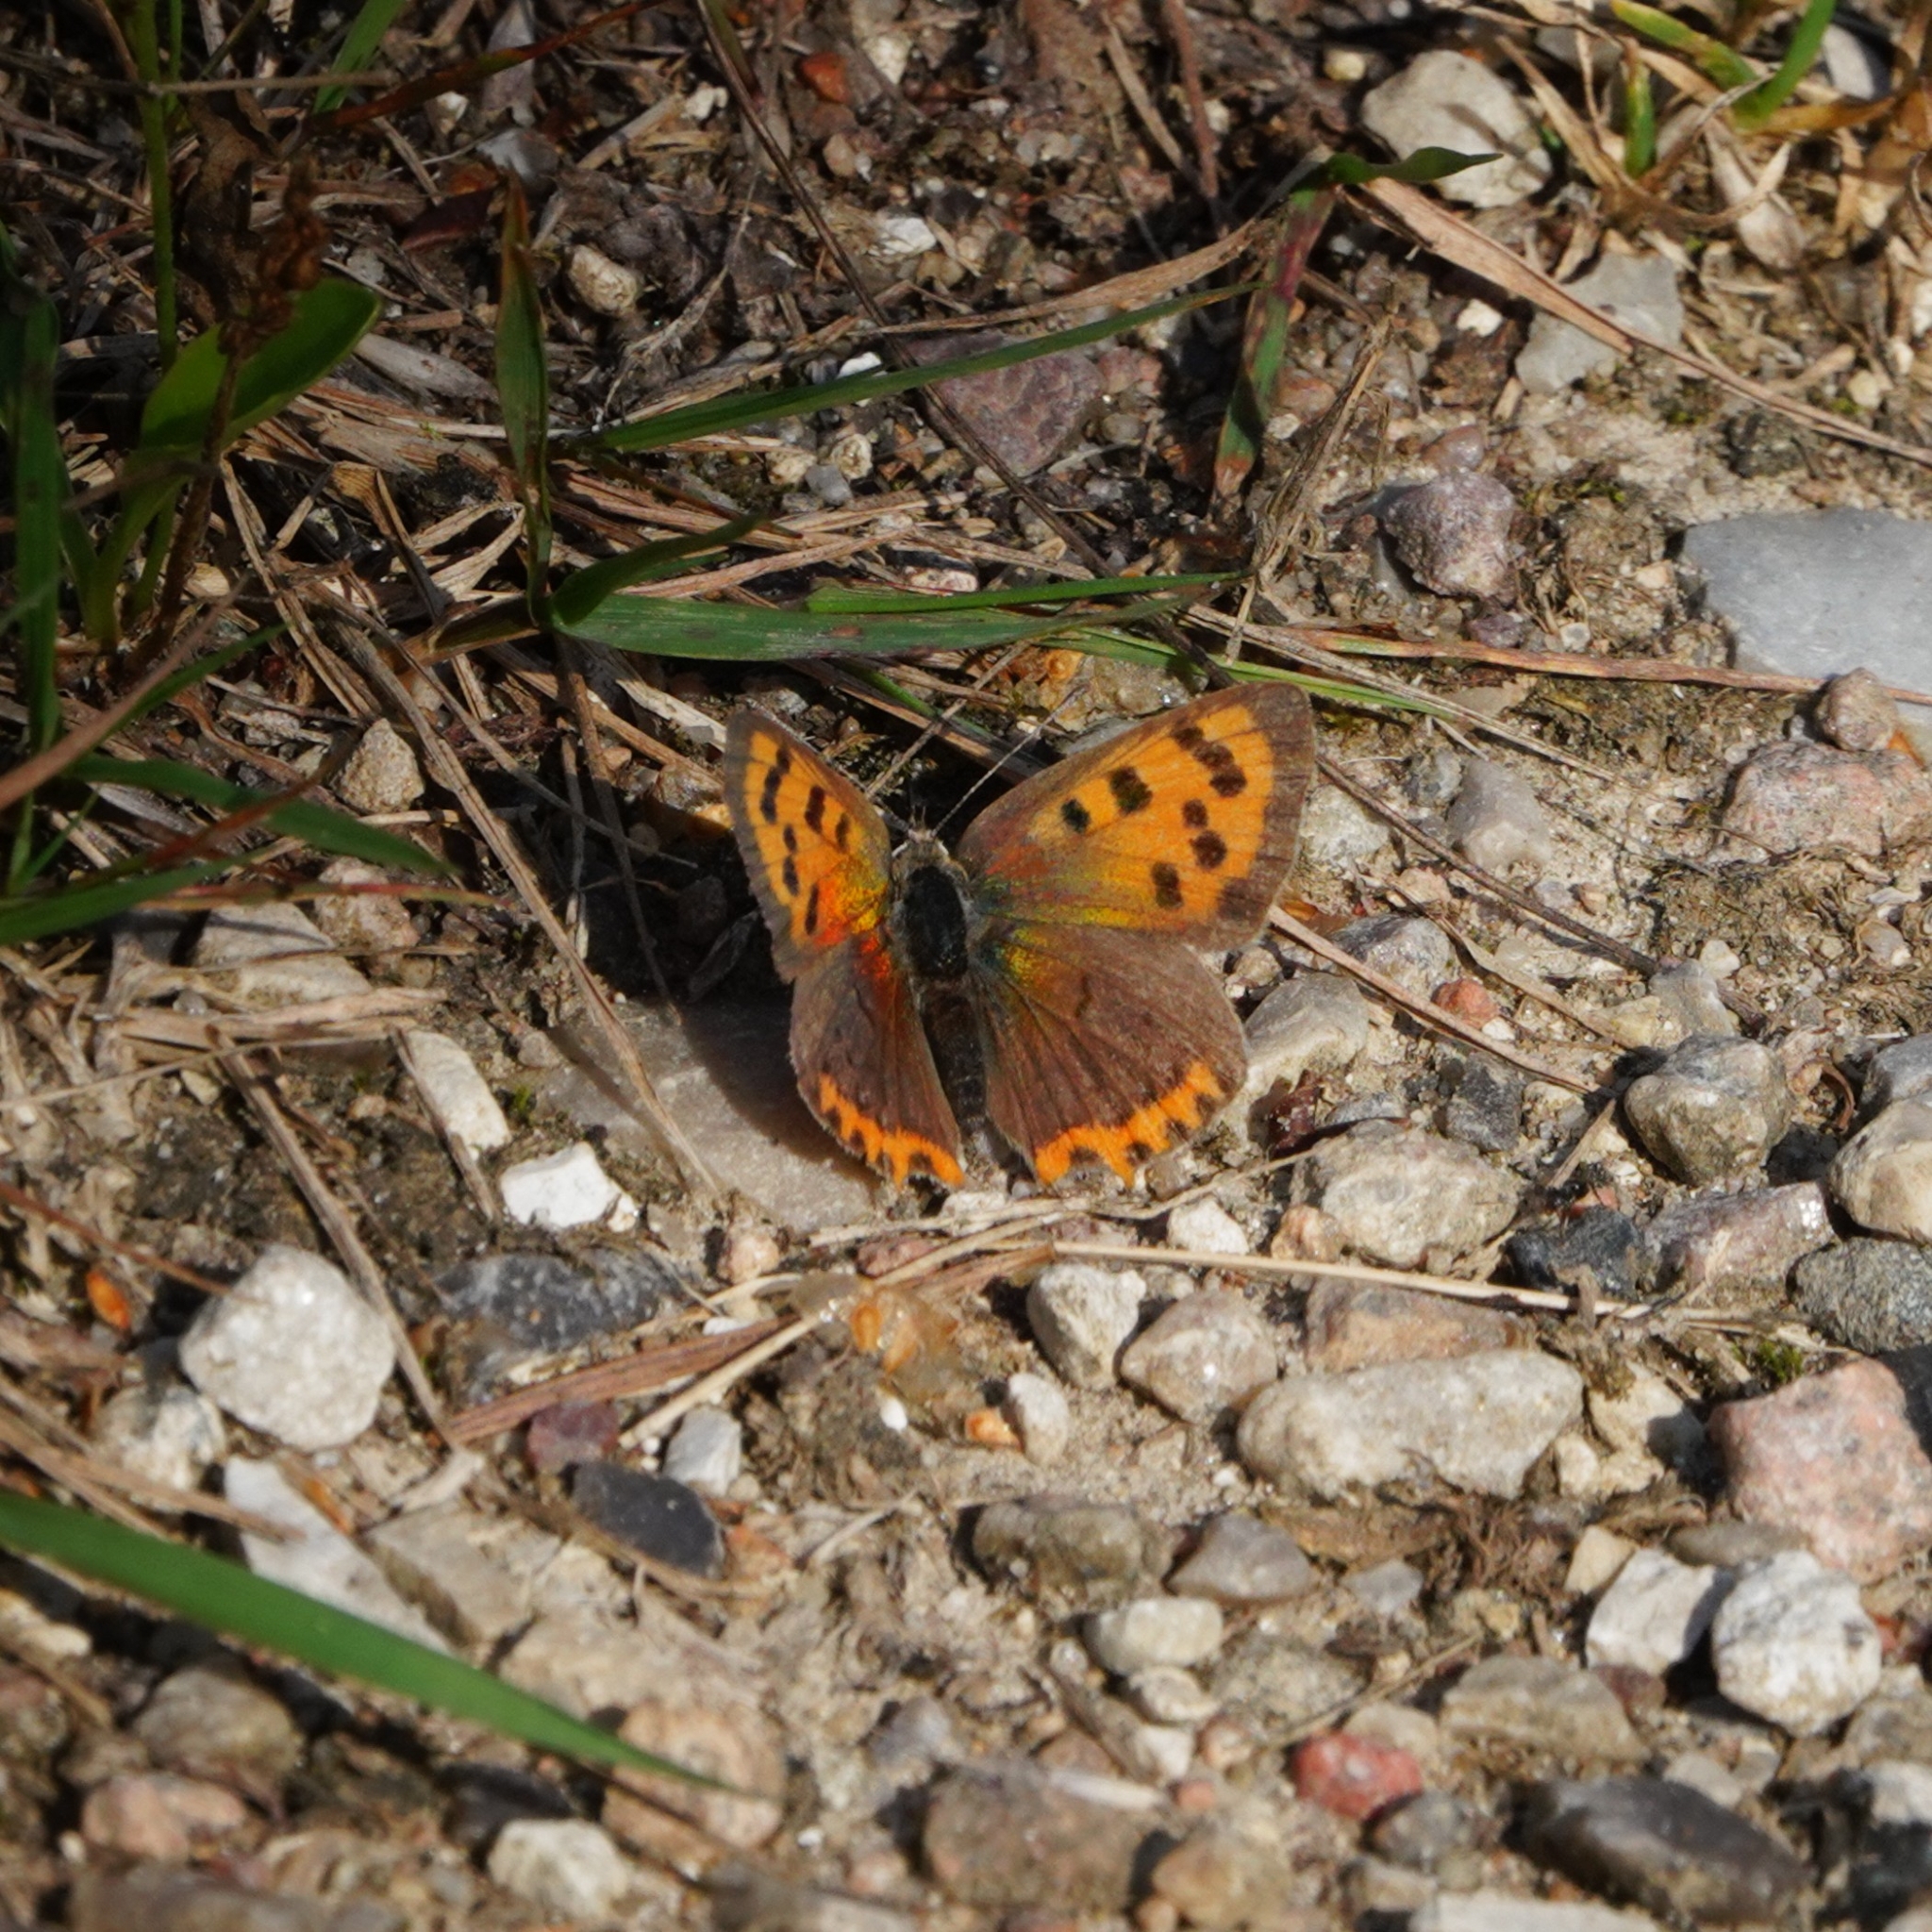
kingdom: Animalia
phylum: Arthropoda
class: Insecta
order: Lepidoptera
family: Lycaenidae
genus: Lycaena
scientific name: Lycaena phlaeas
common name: Small copper
